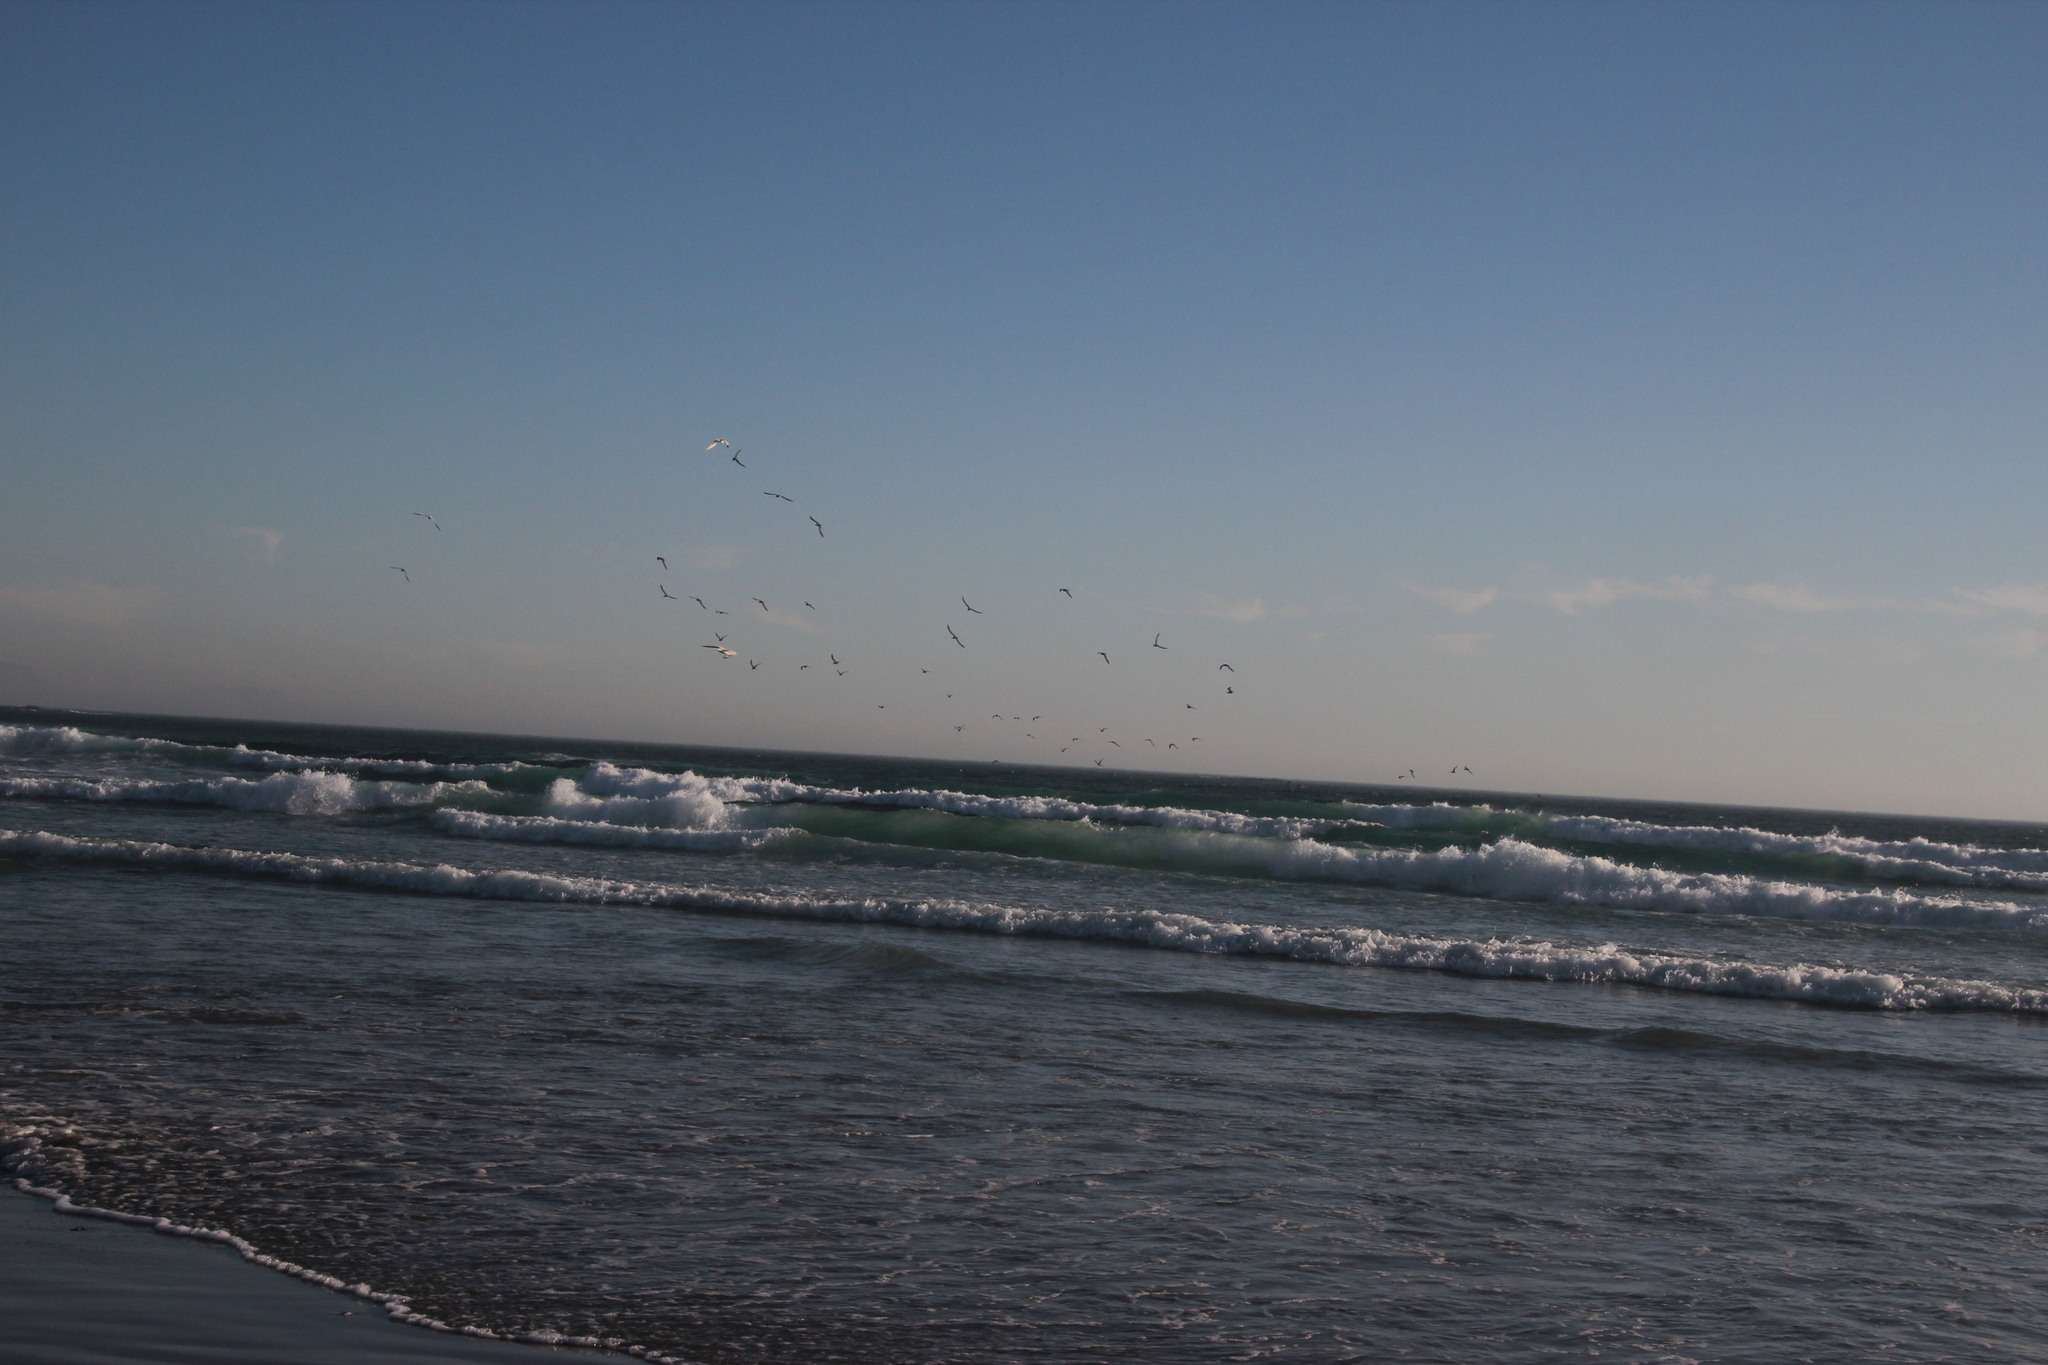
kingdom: Animalia
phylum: Chordata
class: Aves
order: Charadriiformes
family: Laridae
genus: Sterna
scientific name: Sterna hirundo
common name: Common tern
